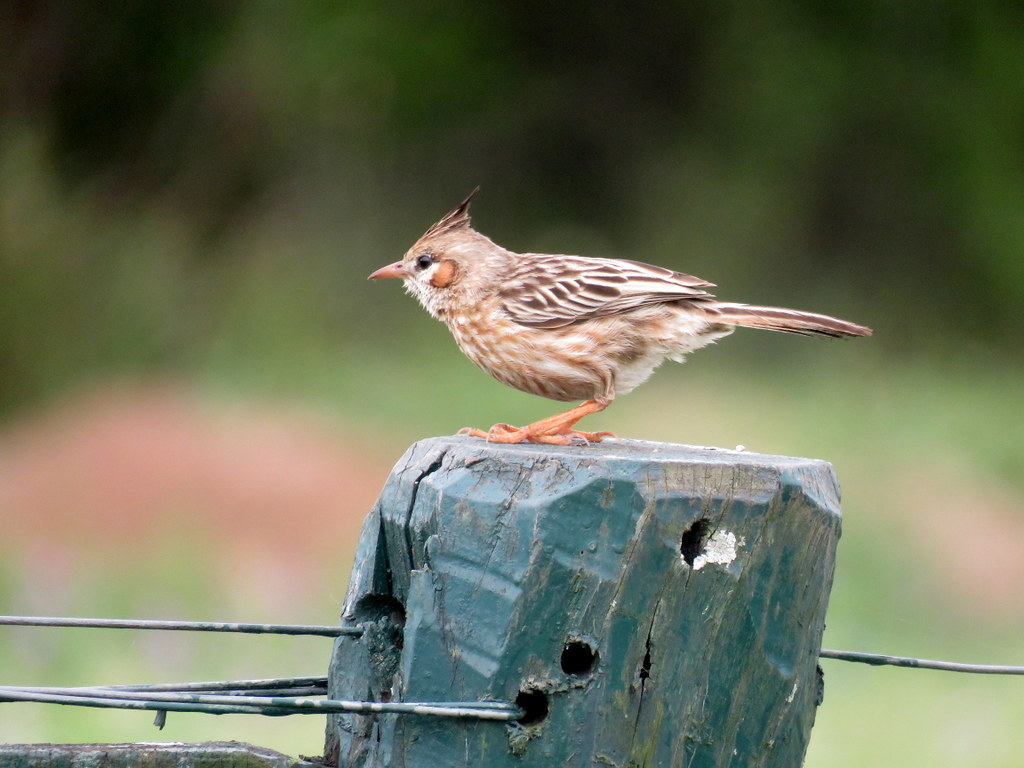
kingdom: Animalia
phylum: Chordata
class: Aves
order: Passeriformes
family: Furnariidae
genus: Coryphistera
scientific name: Coryphistera alaudina
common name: Lark-like brushrunner
